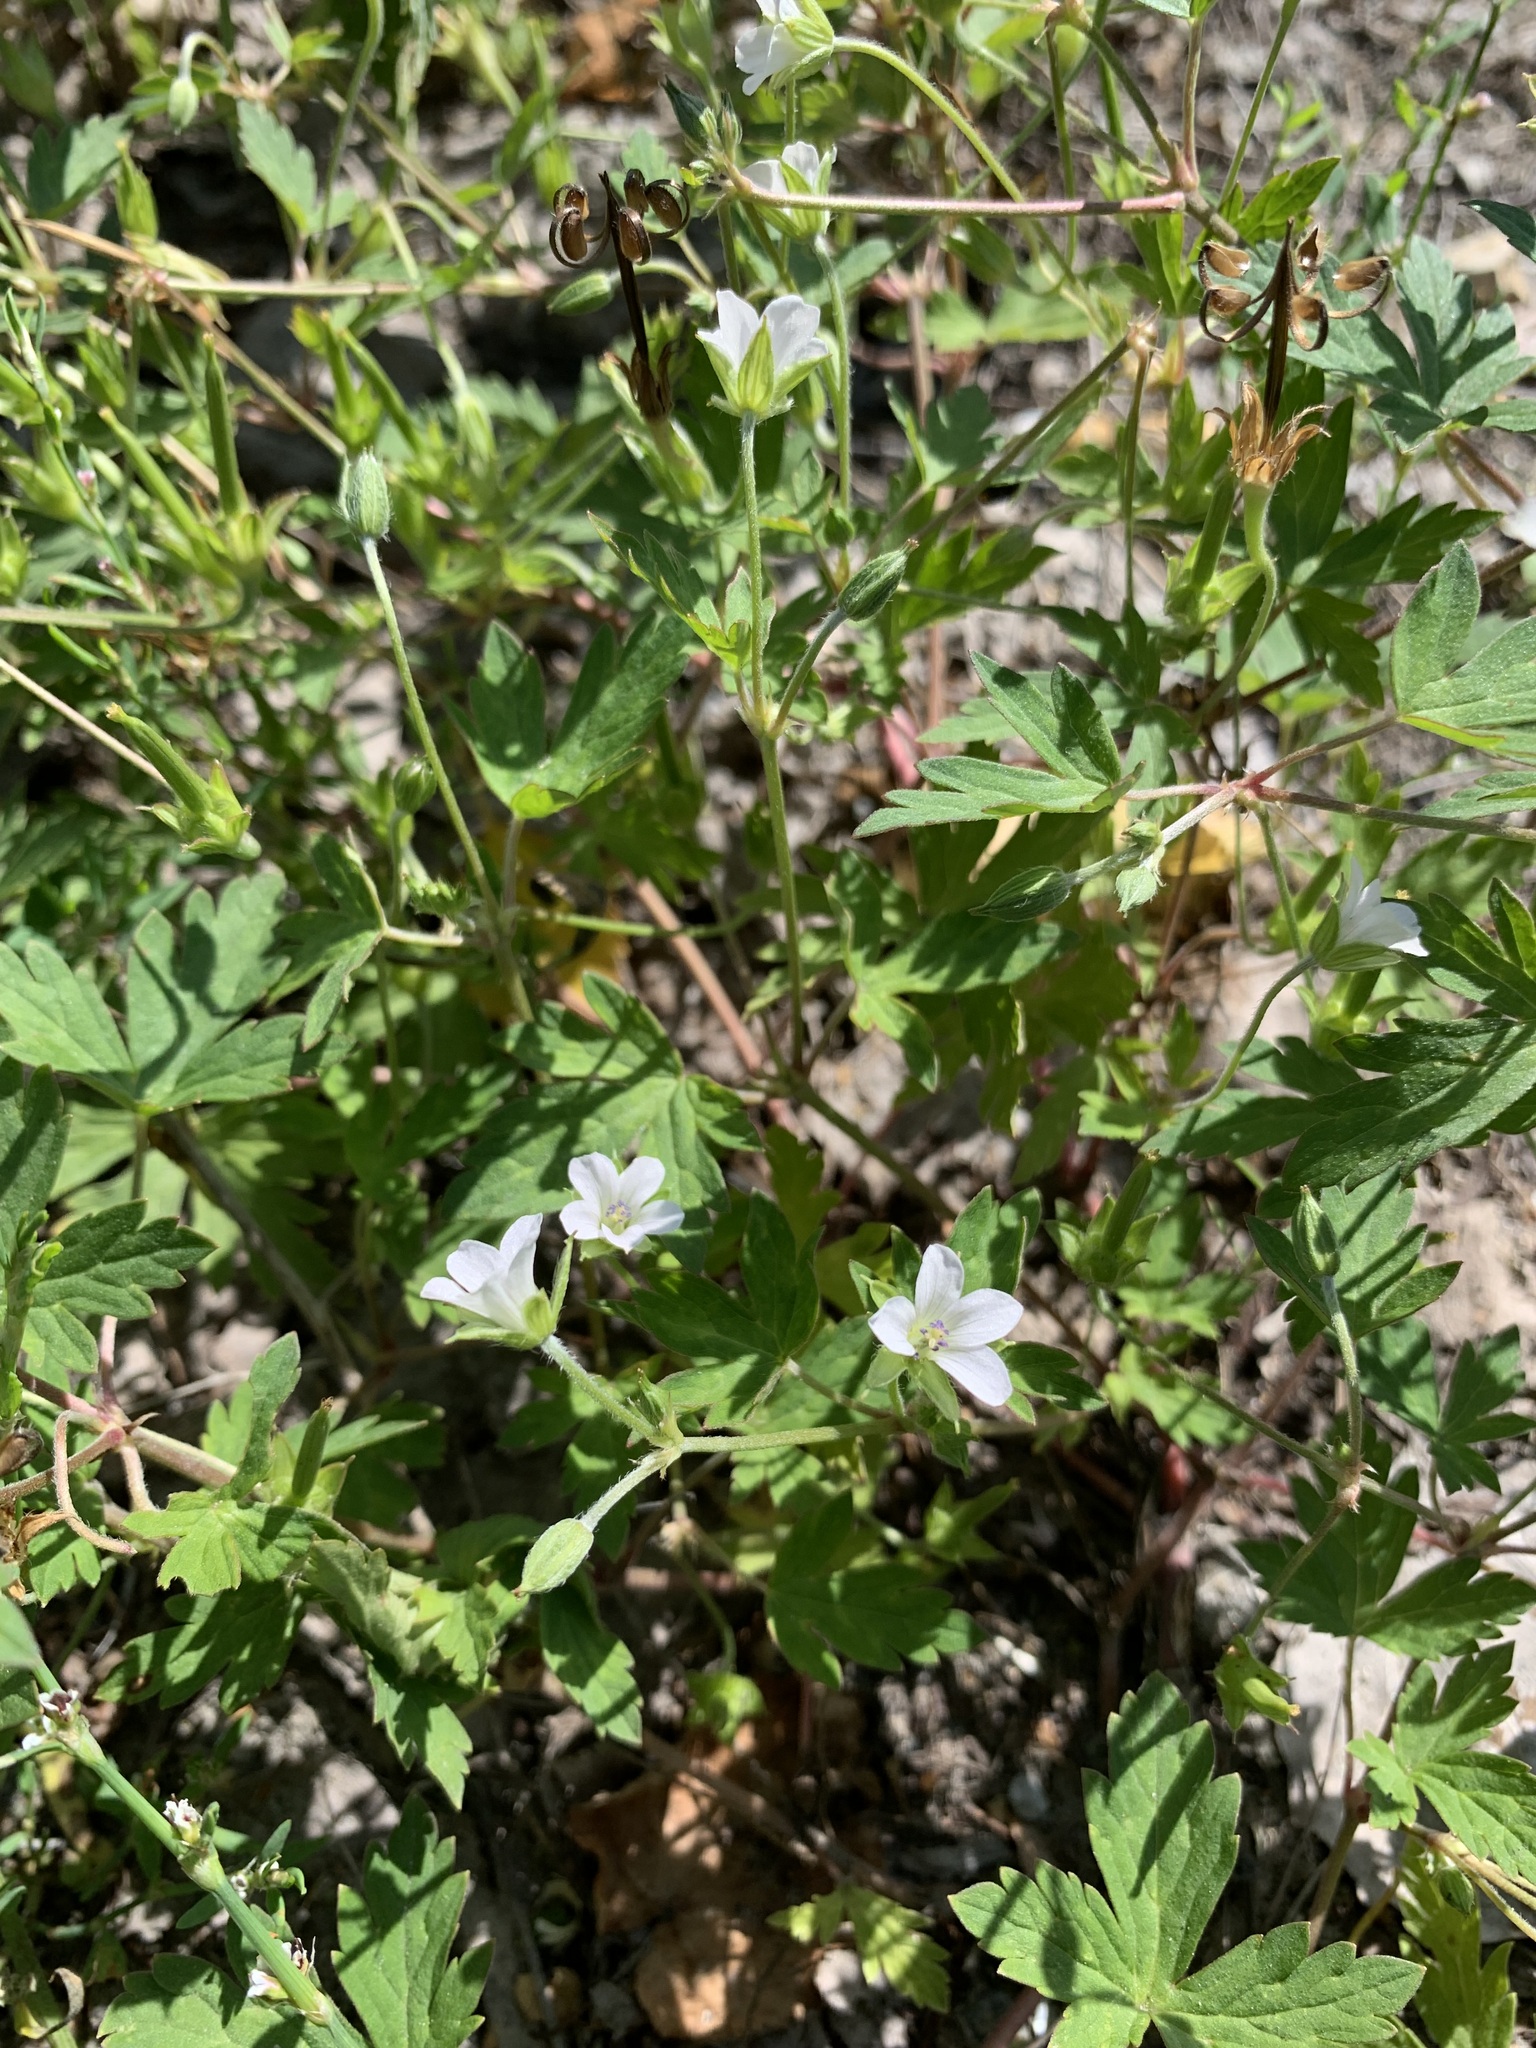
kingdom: Plantae
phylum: Tracheophyta
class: Magnoliopsida
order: Geraniales
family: Geraniaceae
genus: Geranium
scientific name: Geranium sibiricum
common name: Siberian crane's-bill
